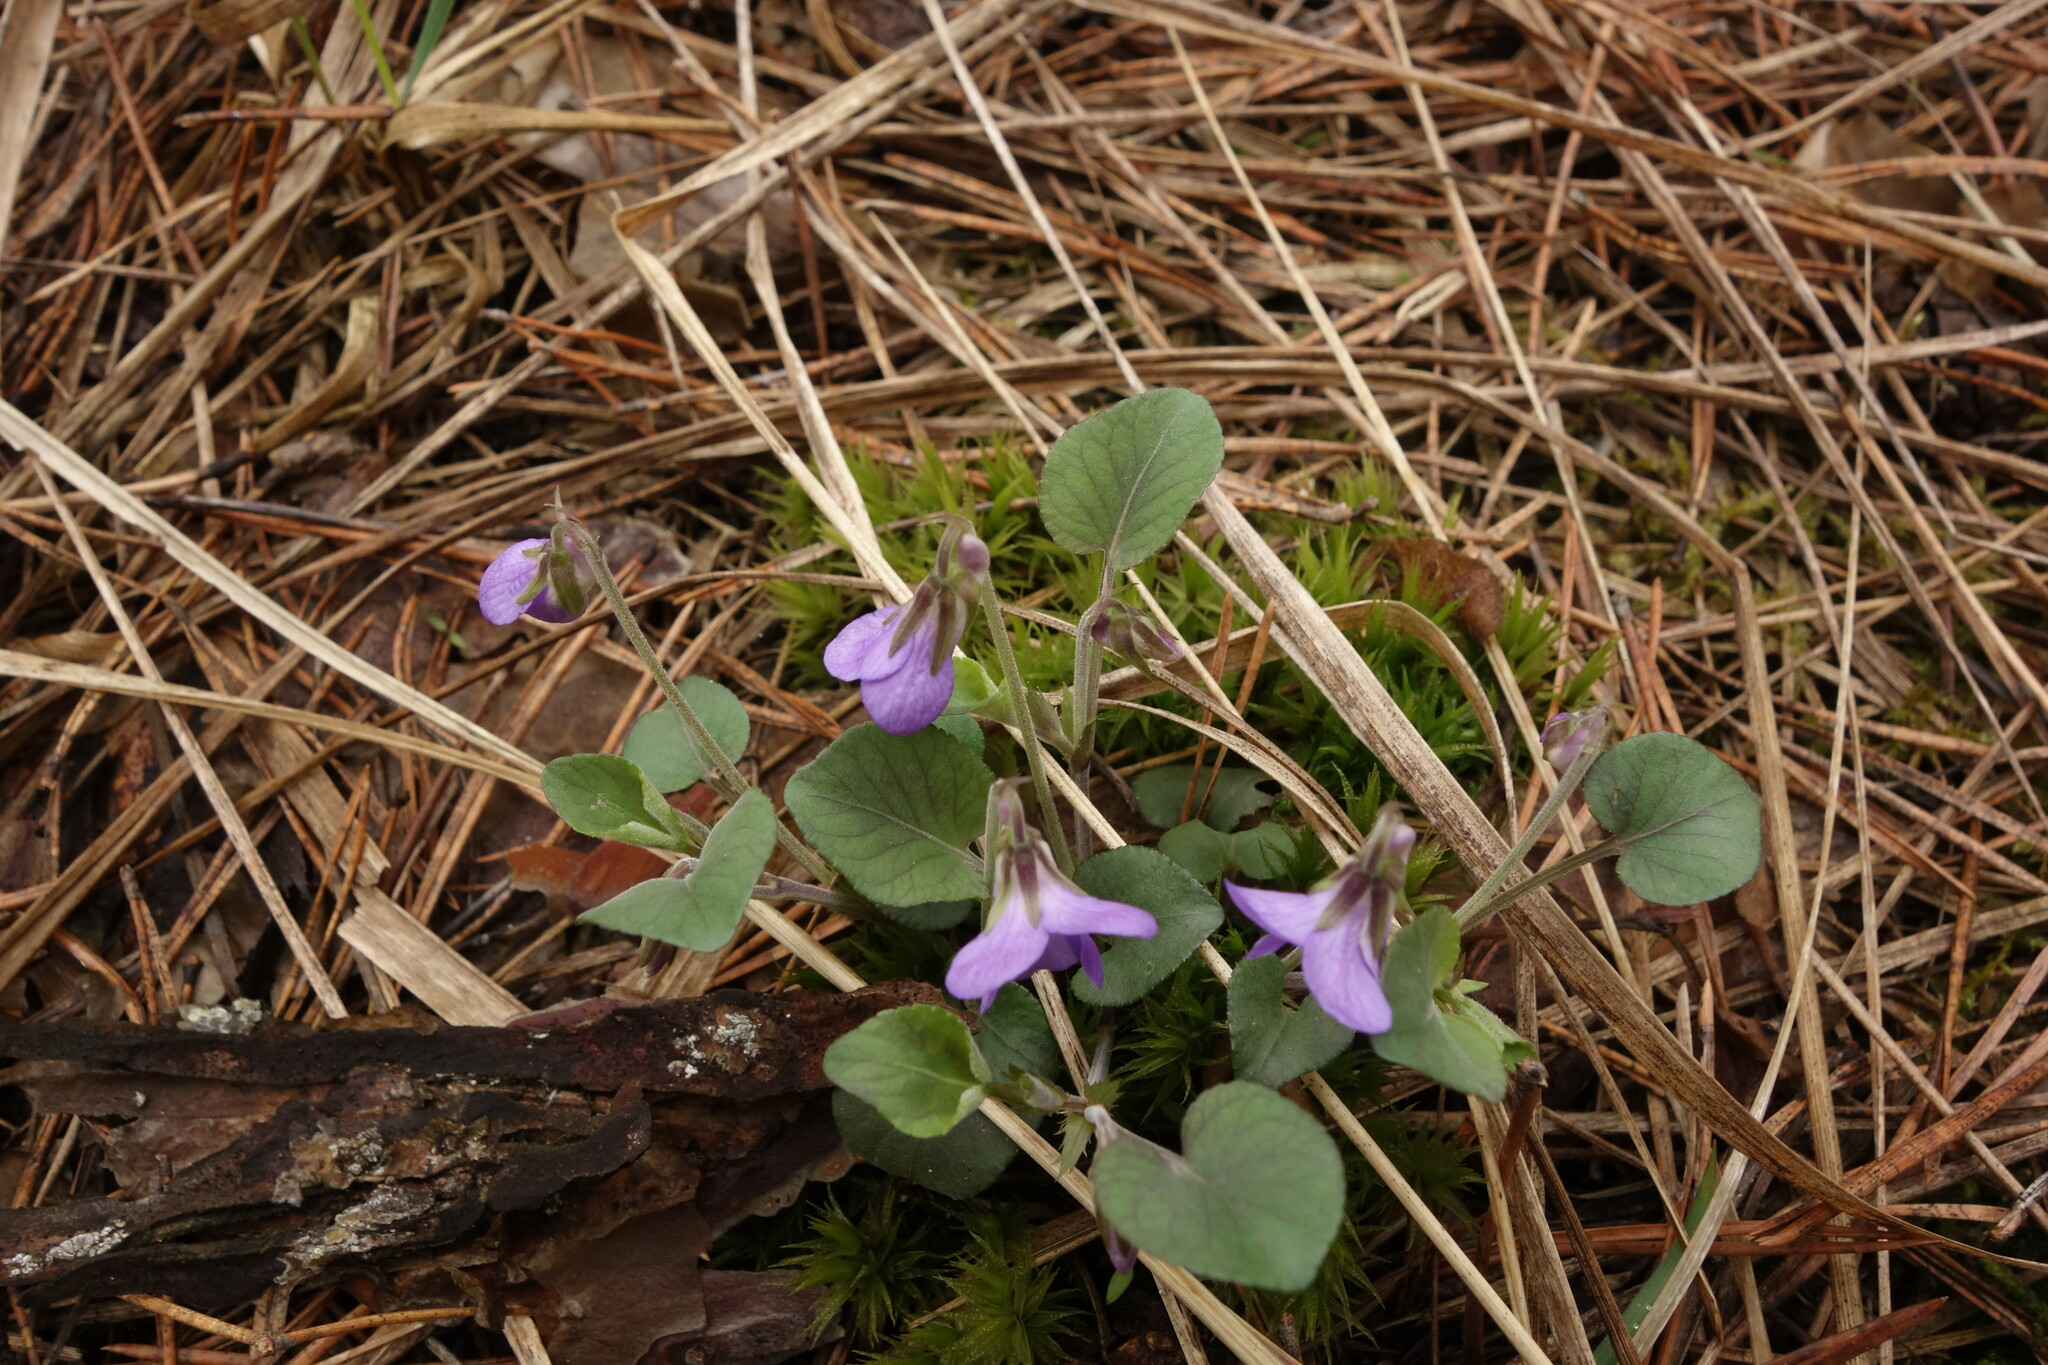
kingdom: Plantae
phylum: Tracheophyta
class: Magnoliopsida
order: Malpighiales
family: Violaceae
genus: Viola
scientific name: Viola rupestris
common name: Teesdale violet
